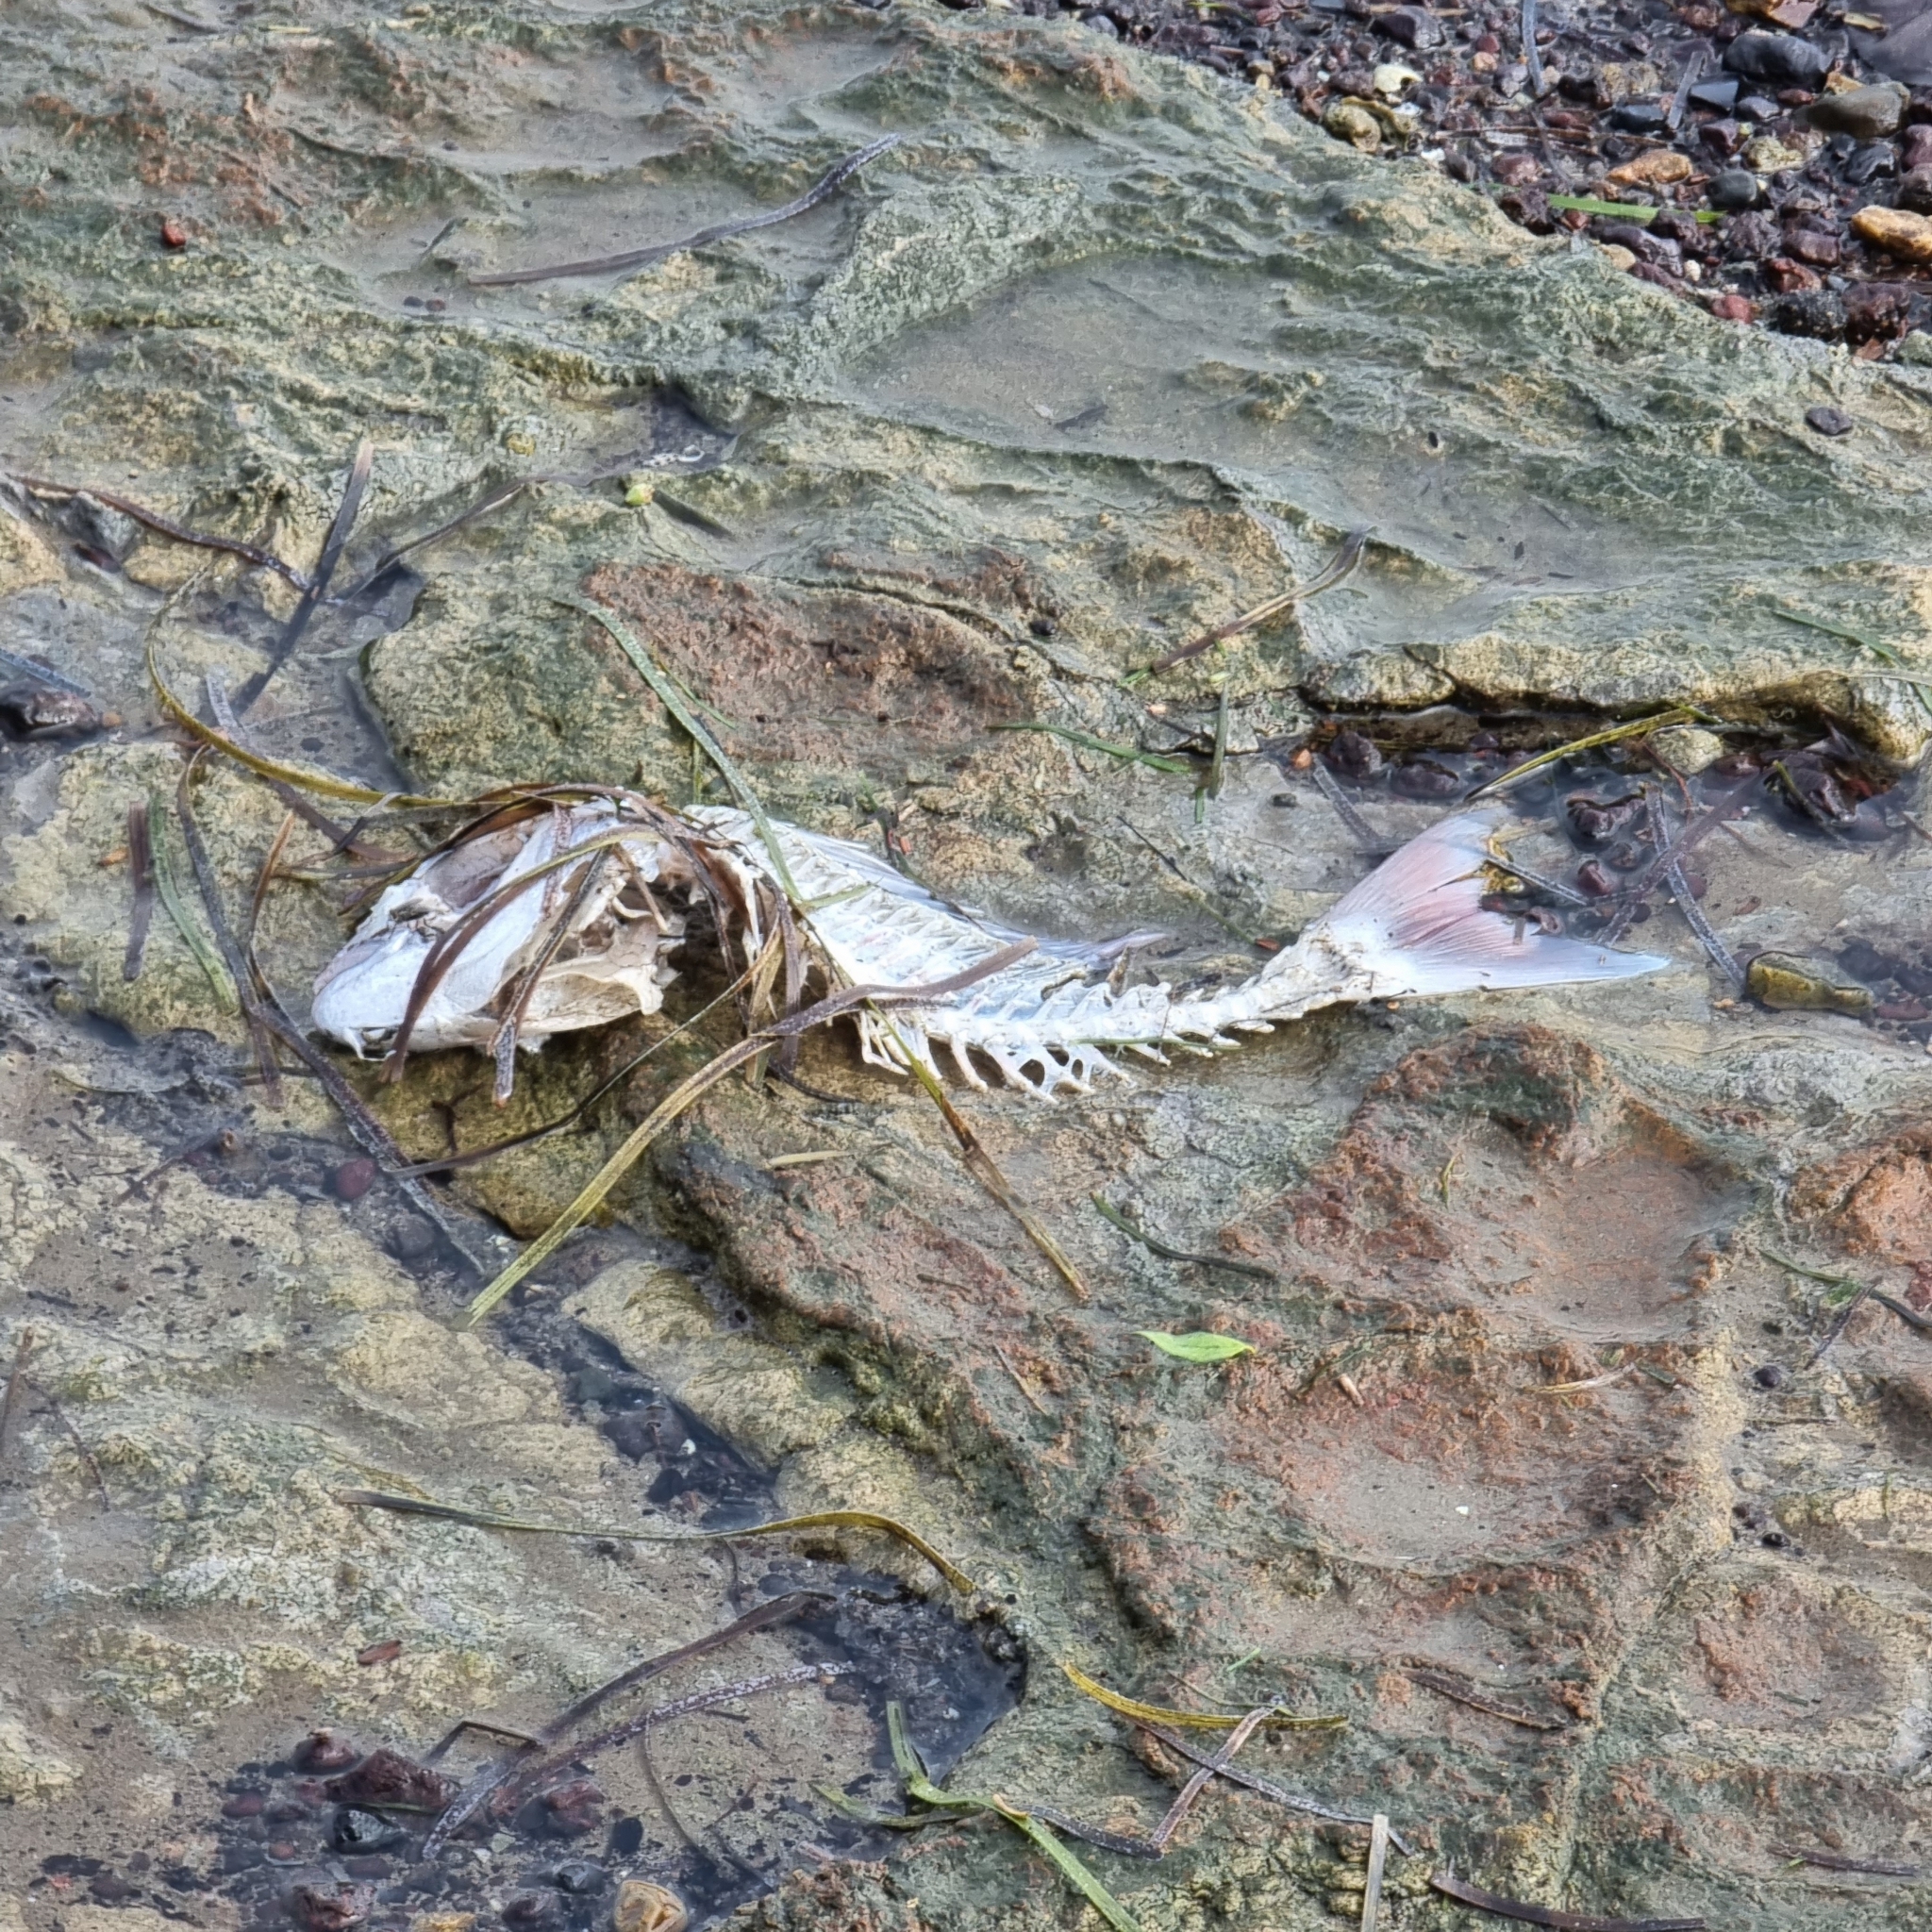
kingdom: Animalia
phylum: Chordata
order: Perciformes
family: Sparidae
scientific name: Sparidae
